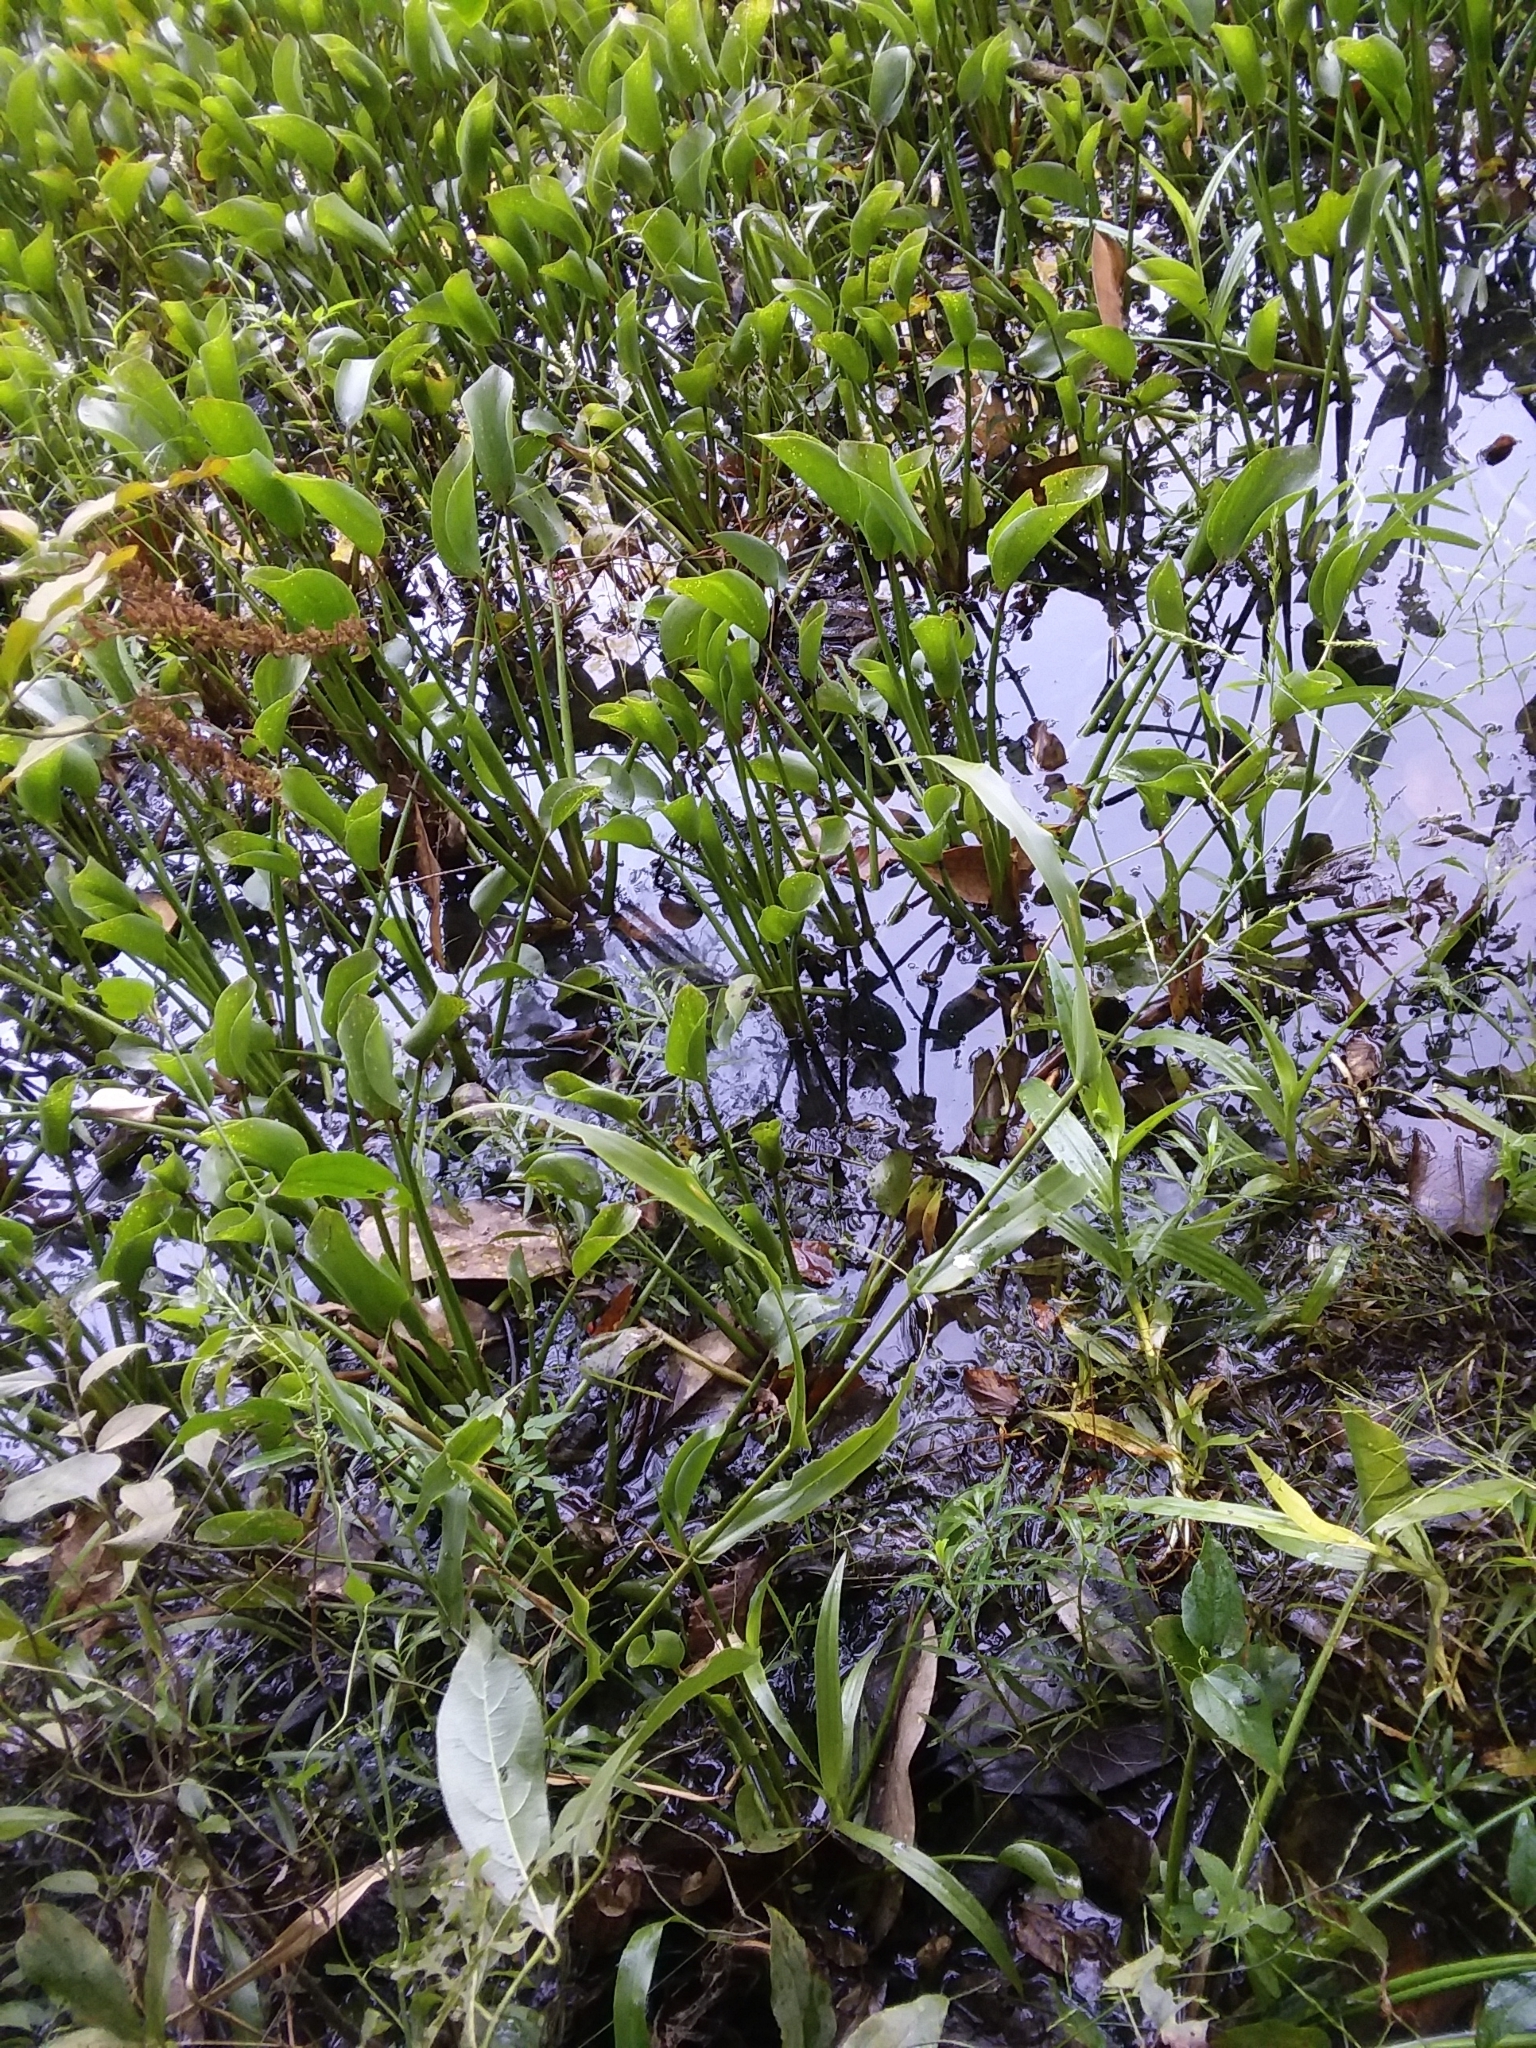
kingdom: Plantae
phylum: Tracheophyta
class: Liliopsida
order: Poales
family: Poaceae
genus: Panicum
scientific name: Panicum gymnocarpon
